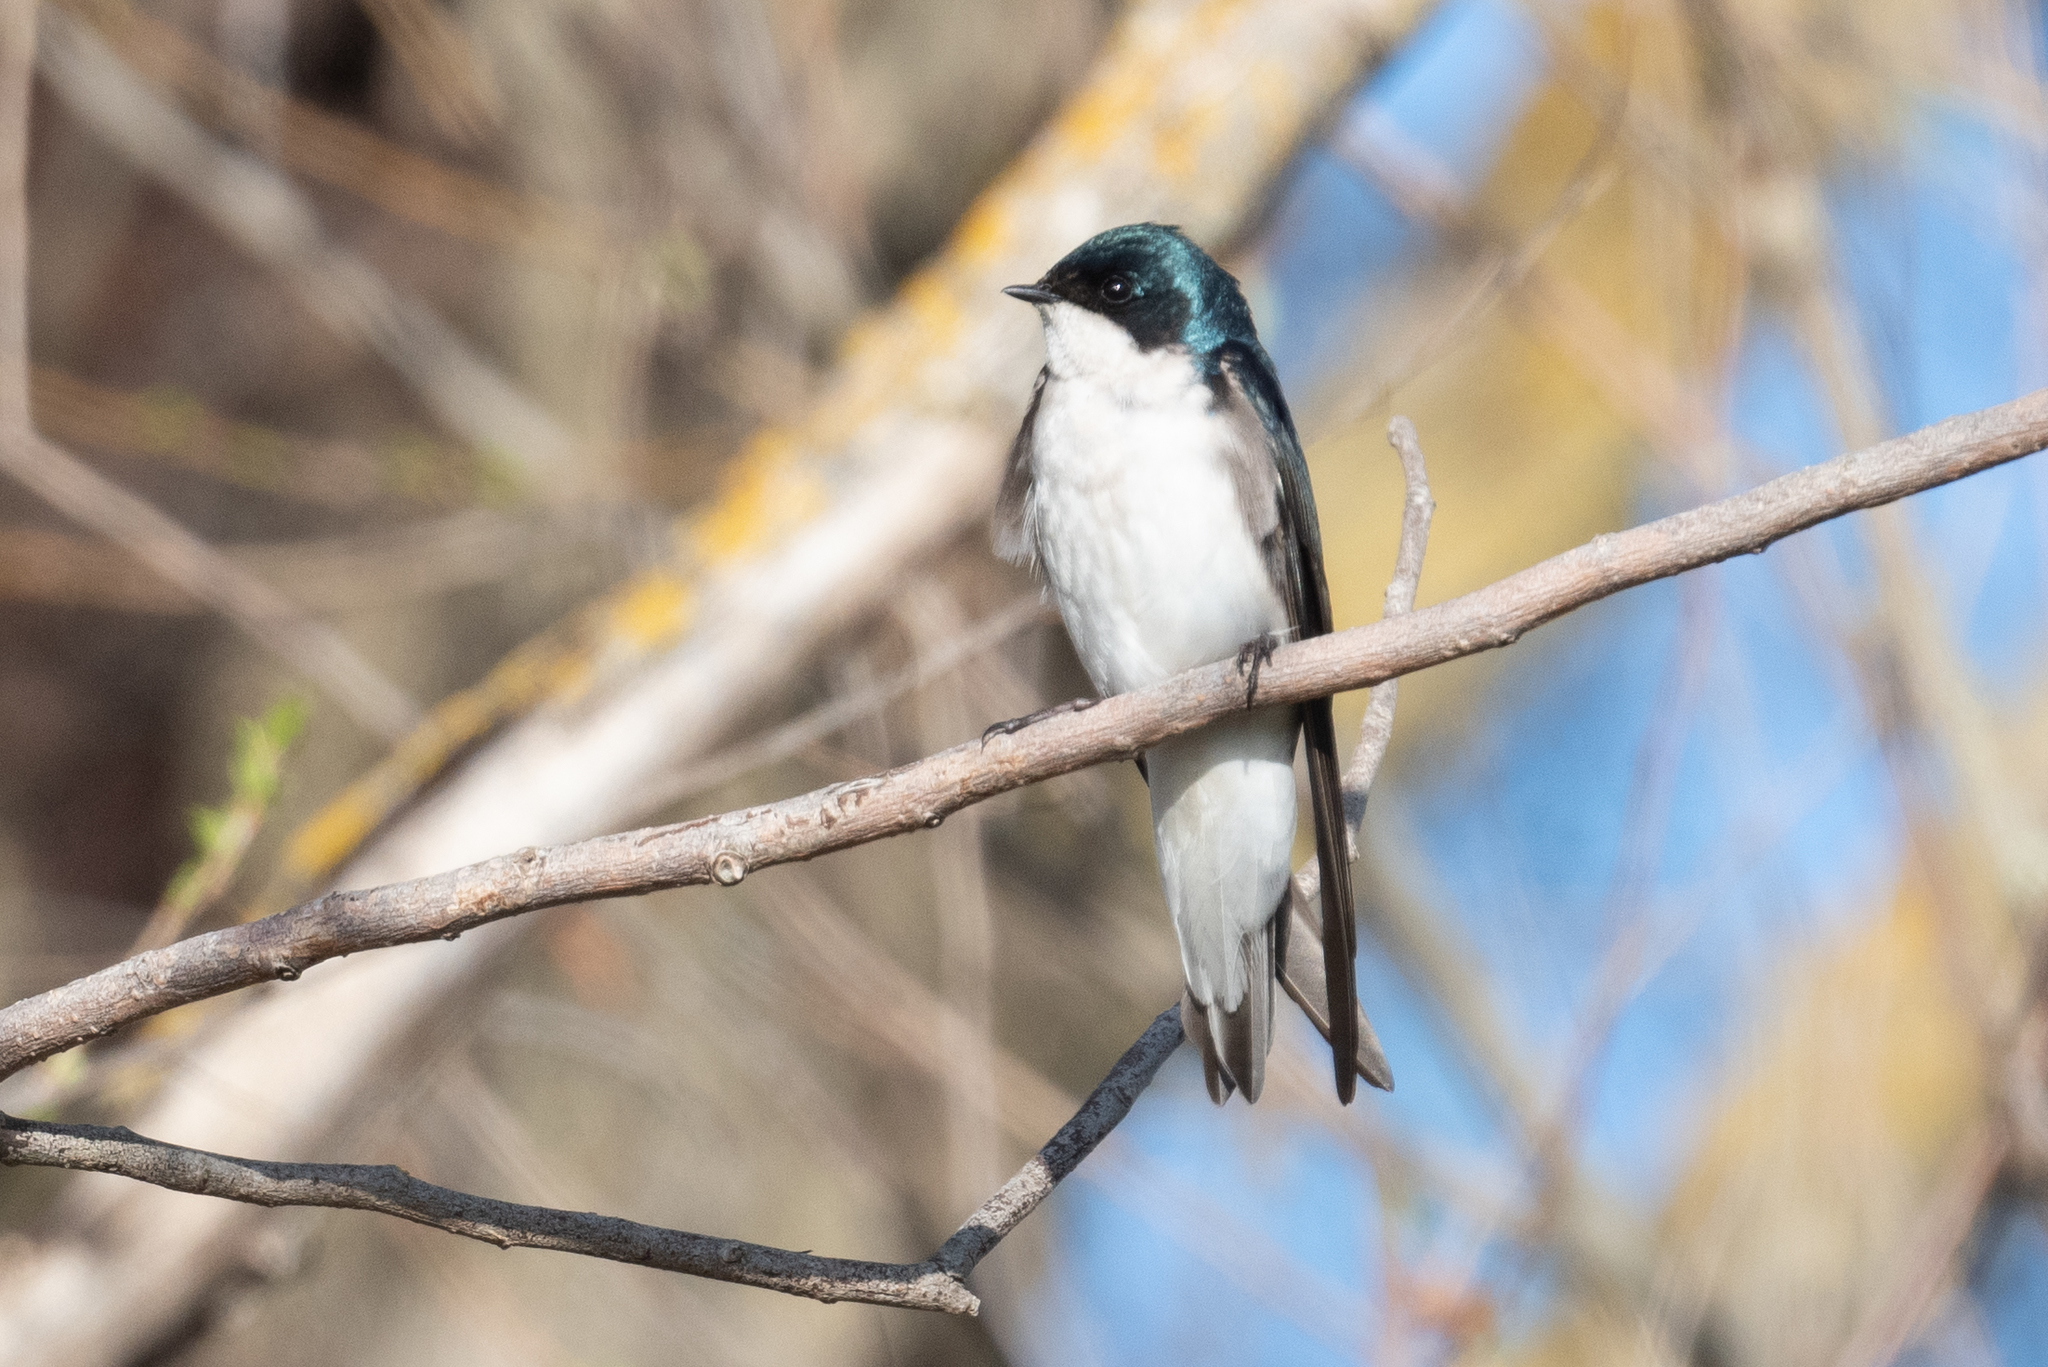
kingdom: Animalia
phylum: Chordata
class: Aves
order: Passeriformes
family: Hirundinidae
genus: Tachycineta
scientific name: Tachycineta bicolor
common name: Tree swallow
